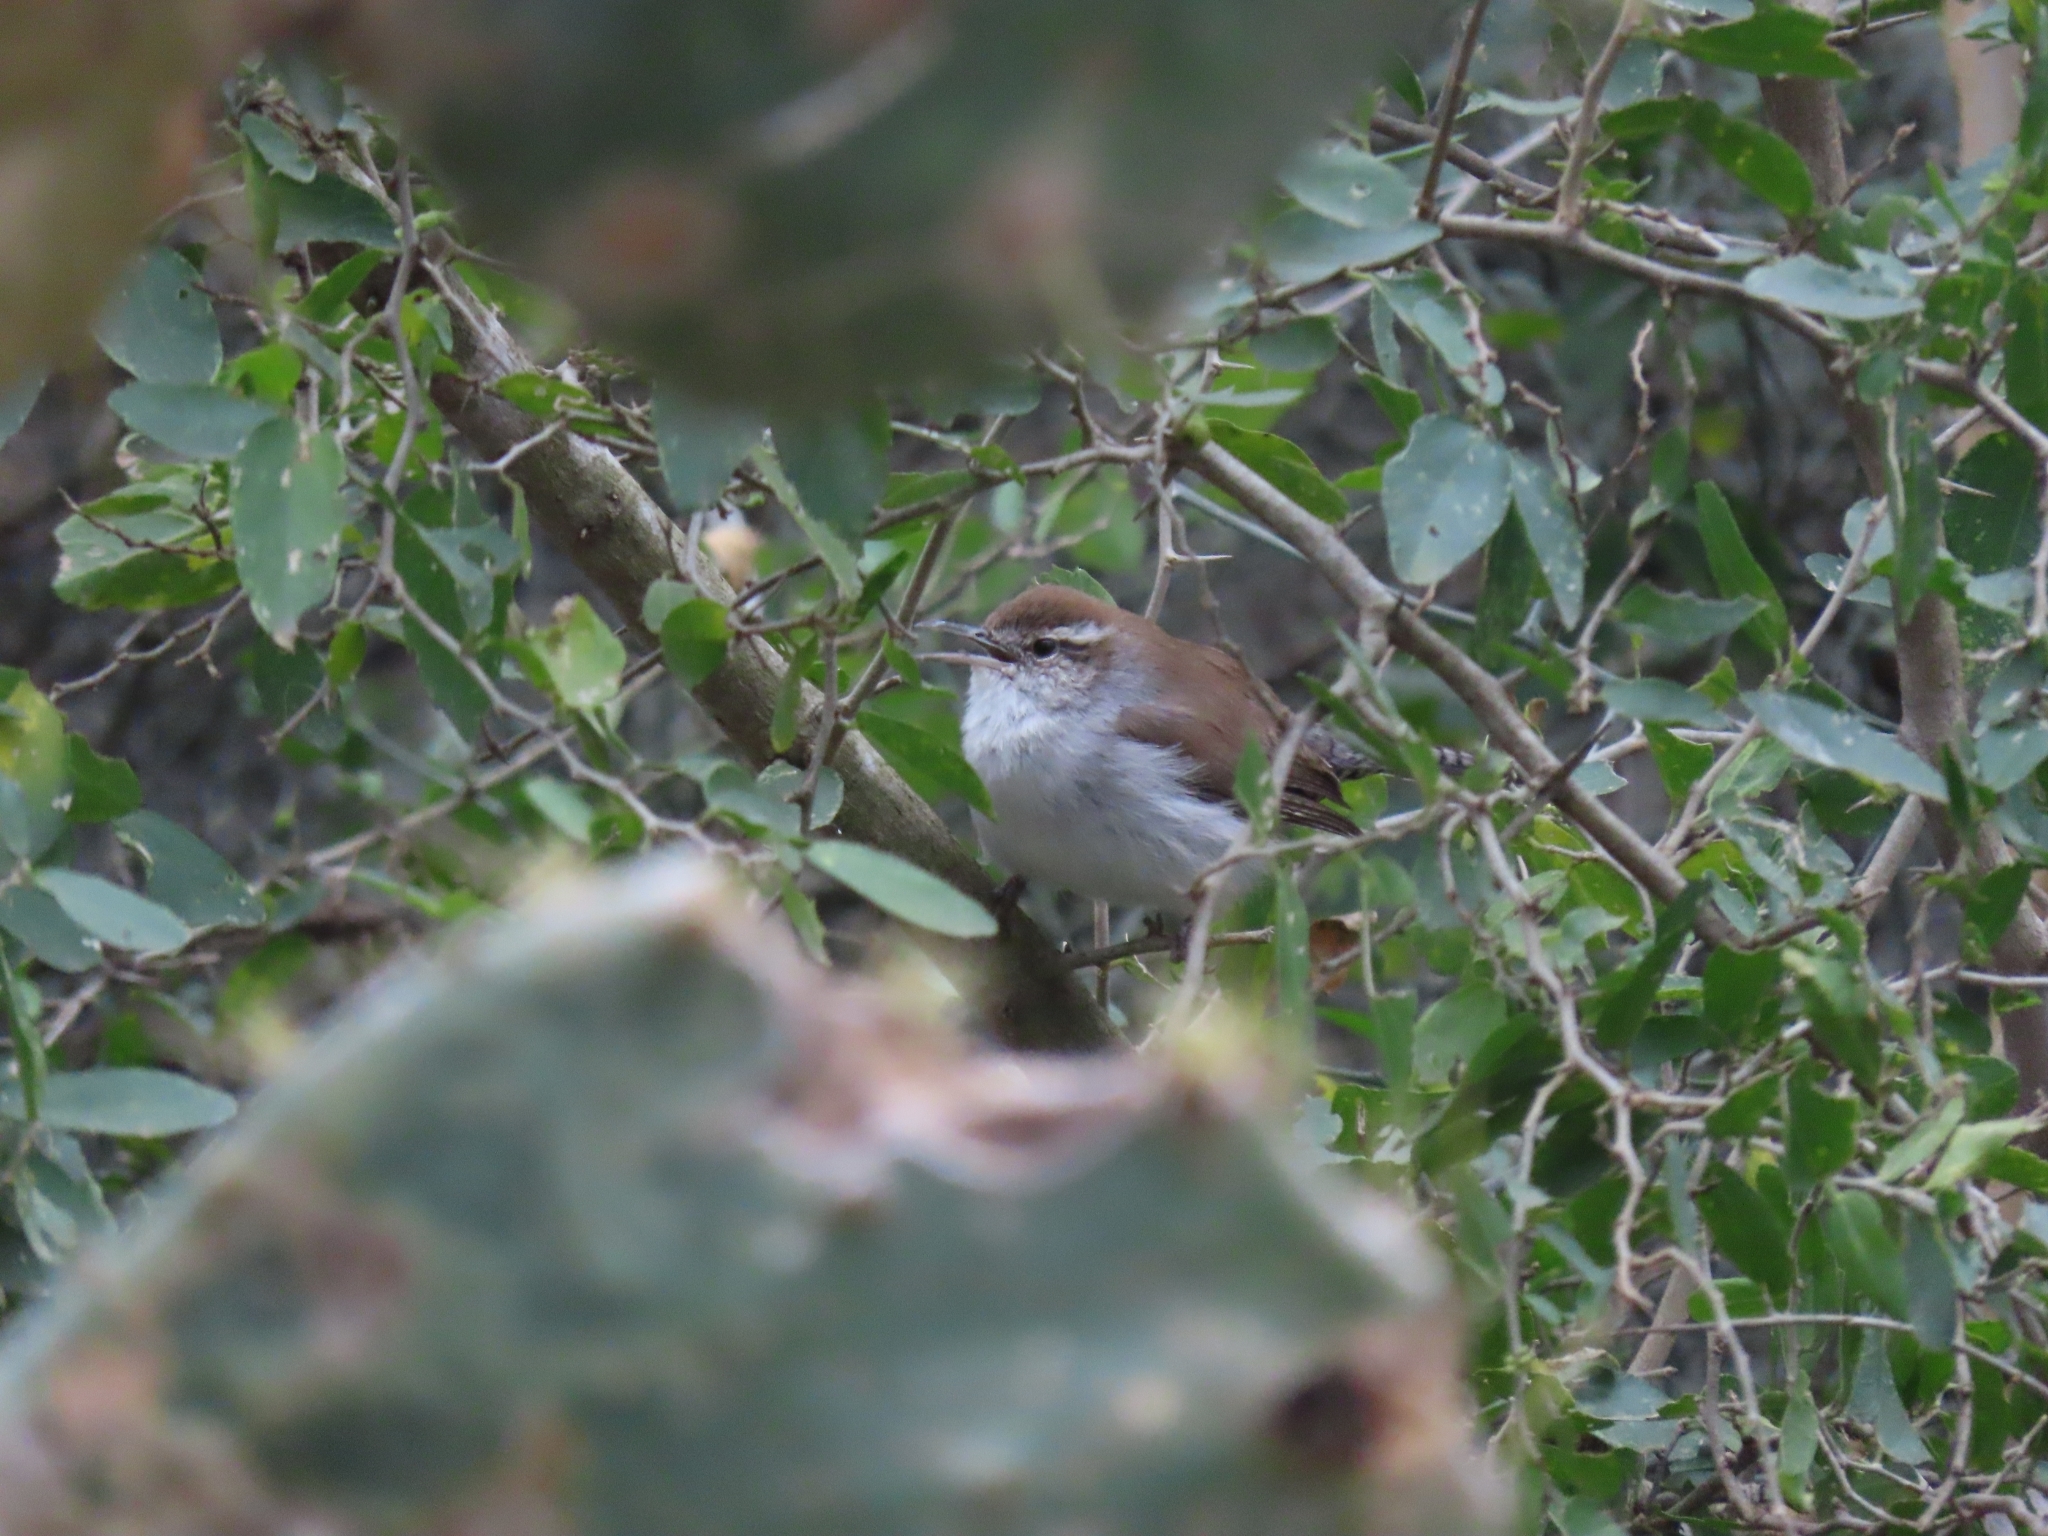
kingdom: Animalia
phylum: Chordata
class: Aves
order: Passeriformes
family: Troglodytidae
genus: Thryomanes
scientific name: Thryomanes bewickii
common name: Bewick's wren
